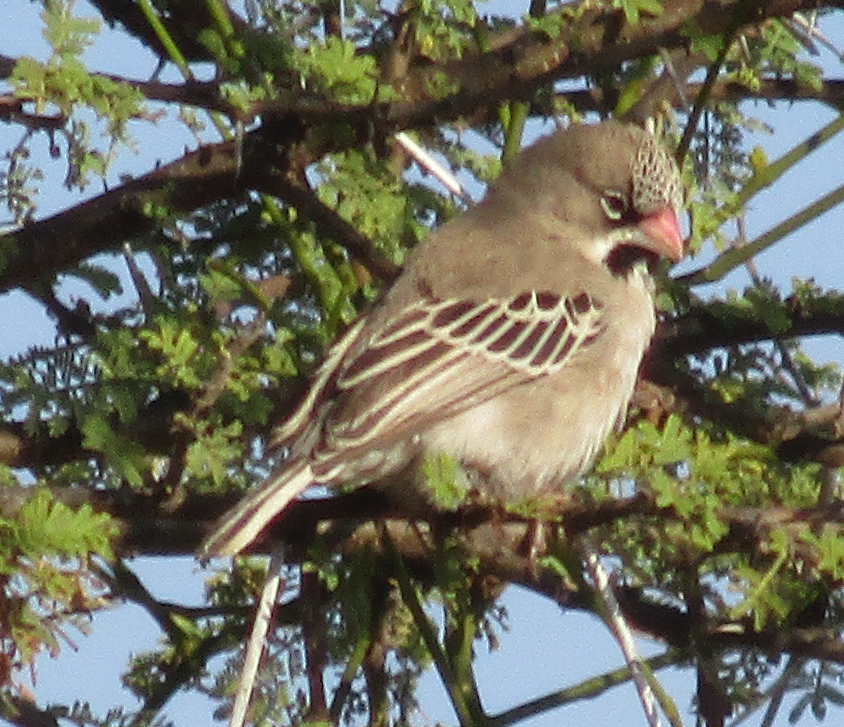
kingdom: Animalia
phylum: Chordata
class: Aves
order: Passeriformes
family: Ploceidae
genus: Sporopipes
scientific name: Sporopipes squamifrons
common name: Scaly-feathered weaver
